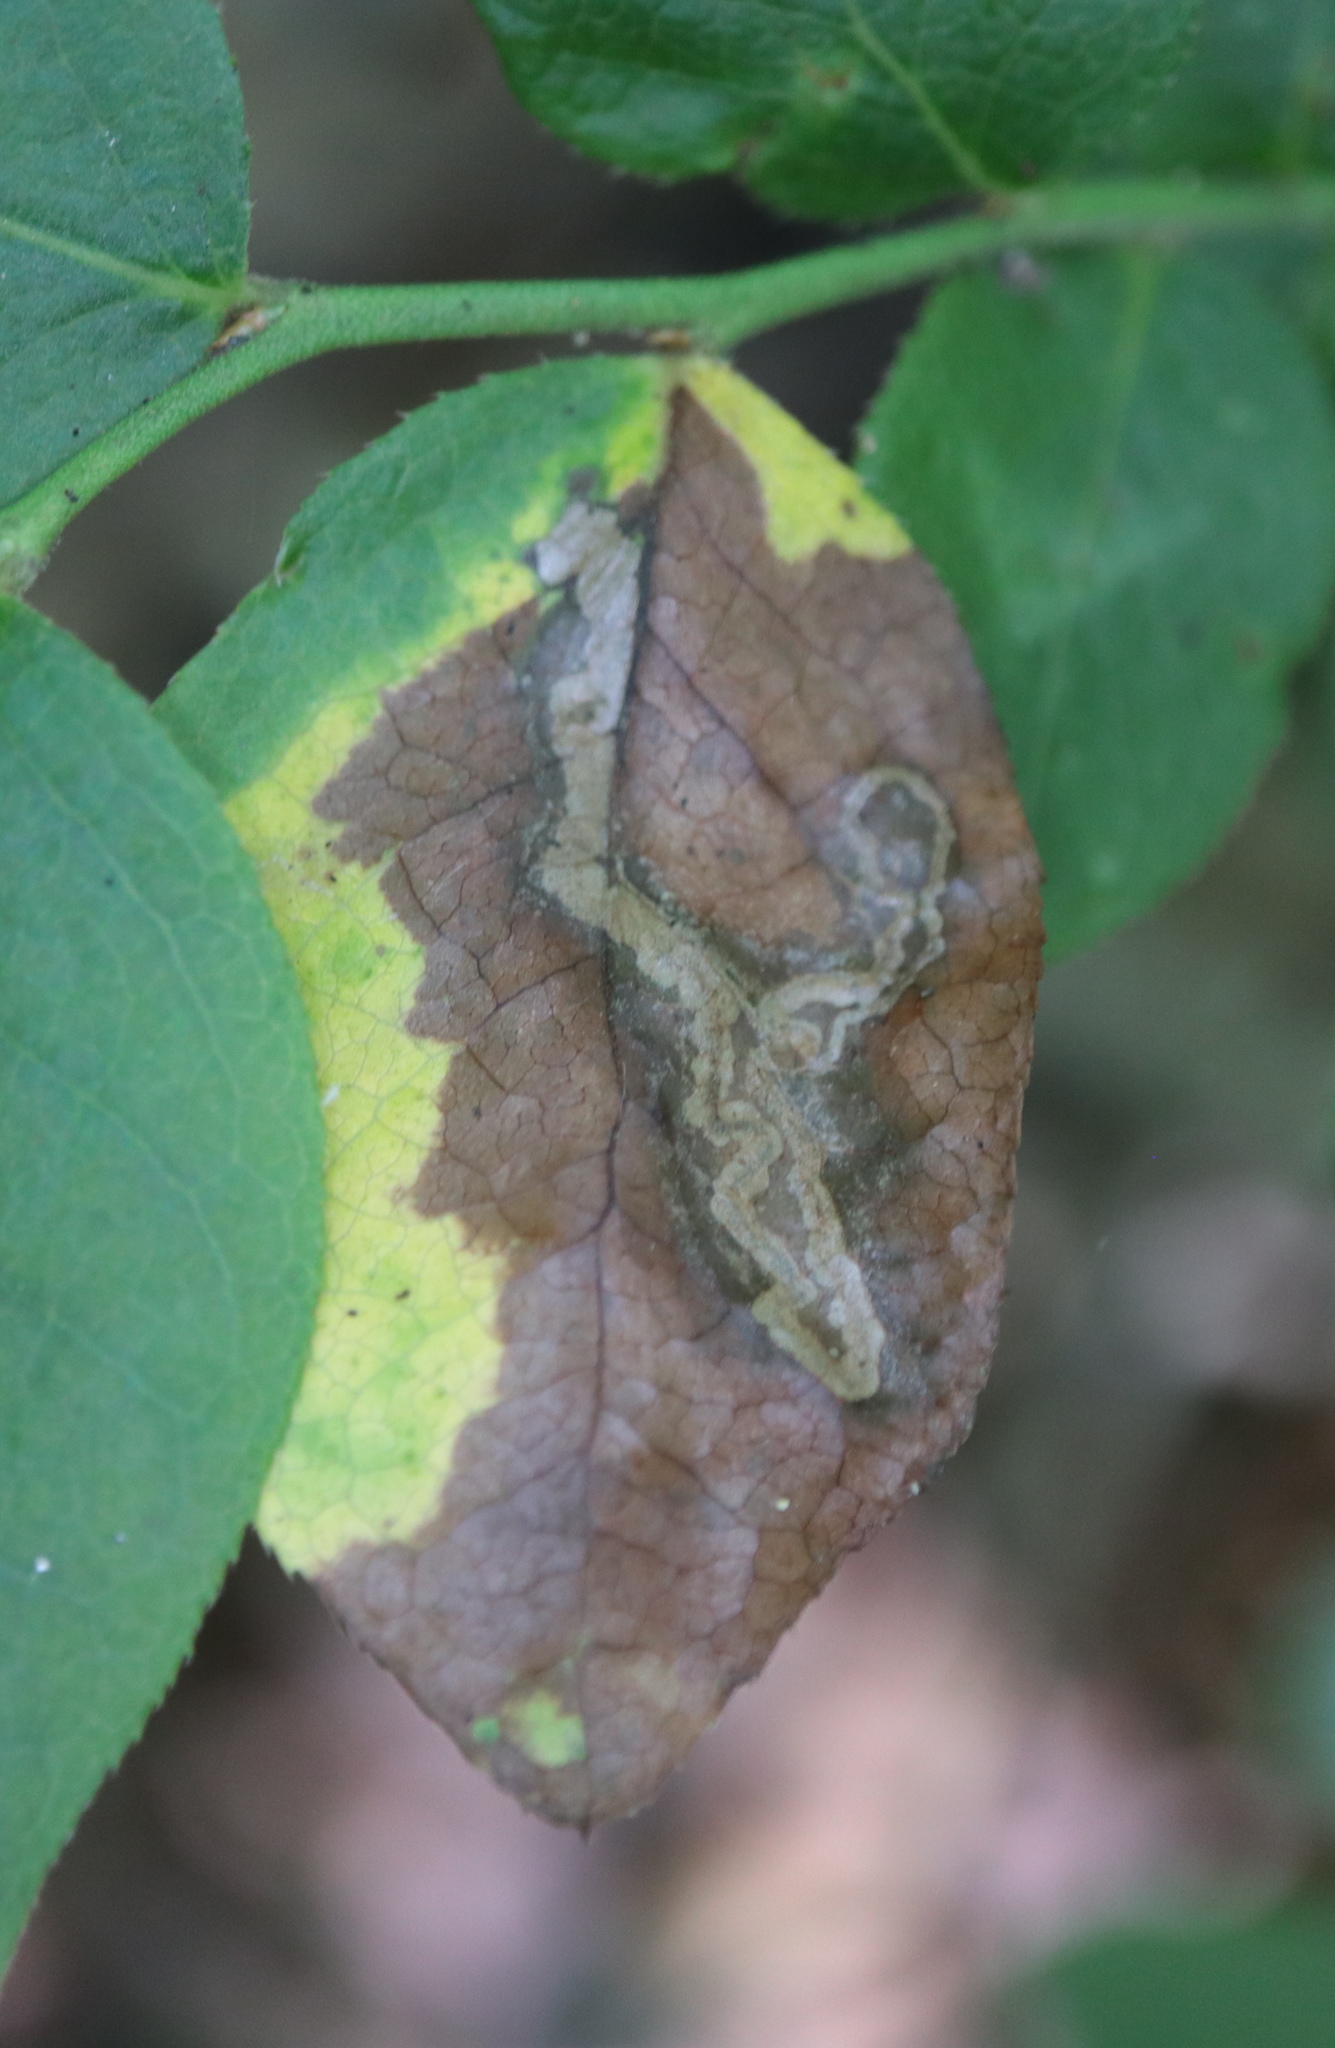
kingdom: Animalia
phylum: Arthropoda
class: Insecta
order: Lepidoptera
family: Nepticulidae
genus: Stigmella
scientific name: Stigmella corylifoliella
